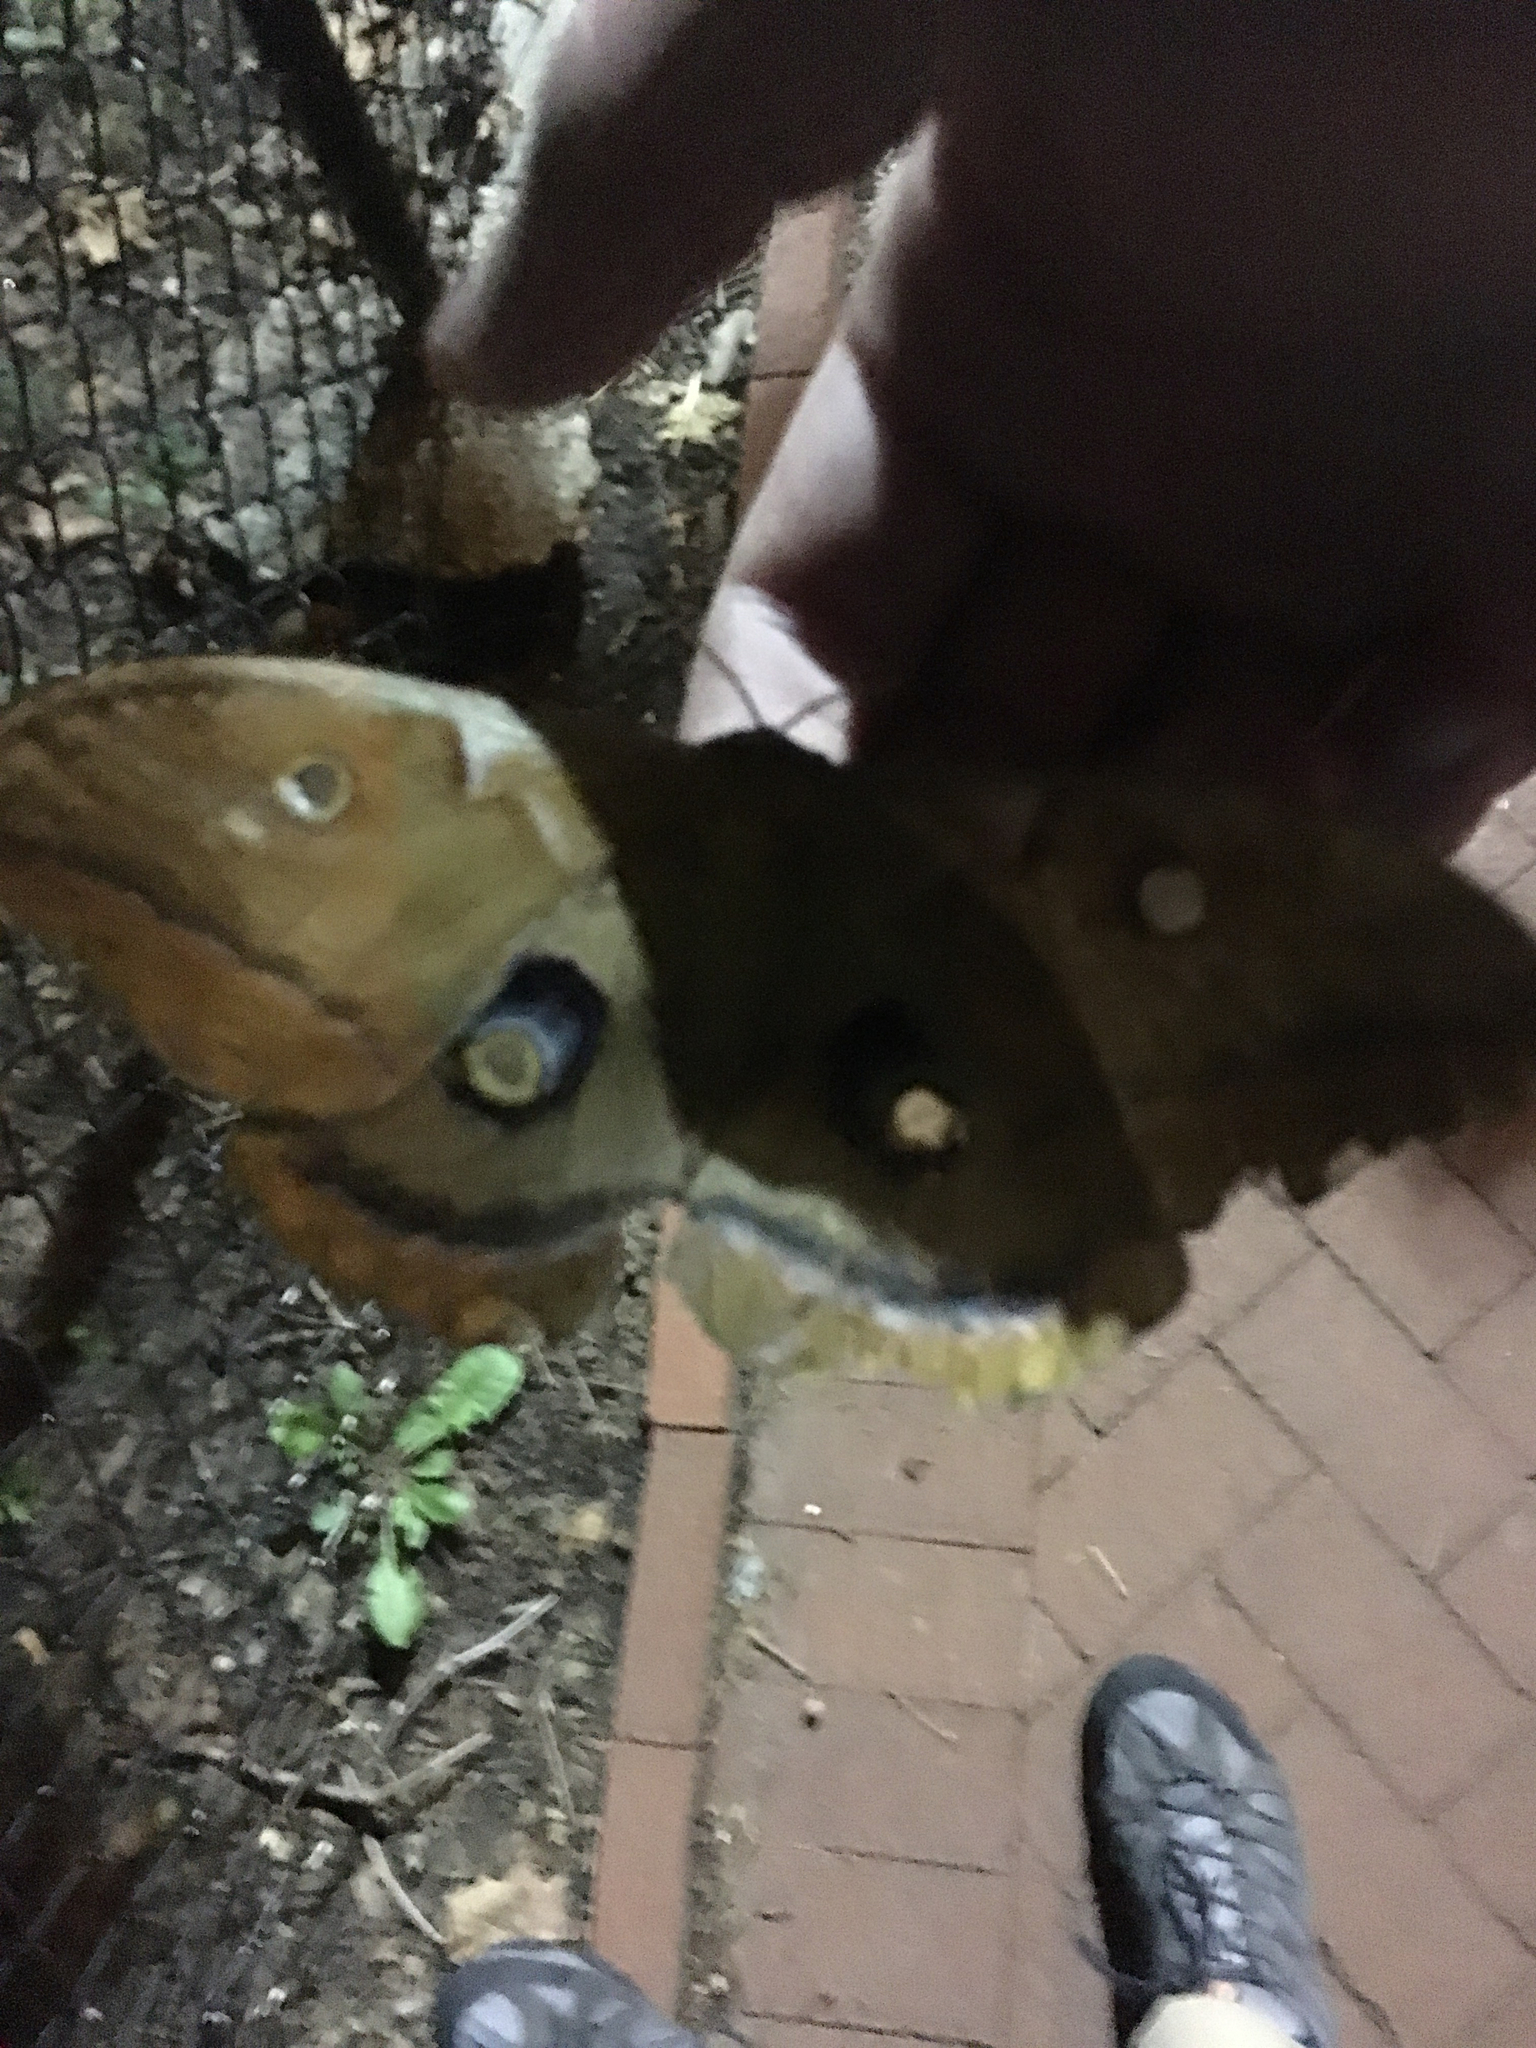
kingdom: Animalia
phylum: Arthropoda
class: Insecta
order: Lepidoptera
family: Saturniidae
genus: Antheraea
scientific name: Antheraea polyphemus
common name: Polyphemus moth
